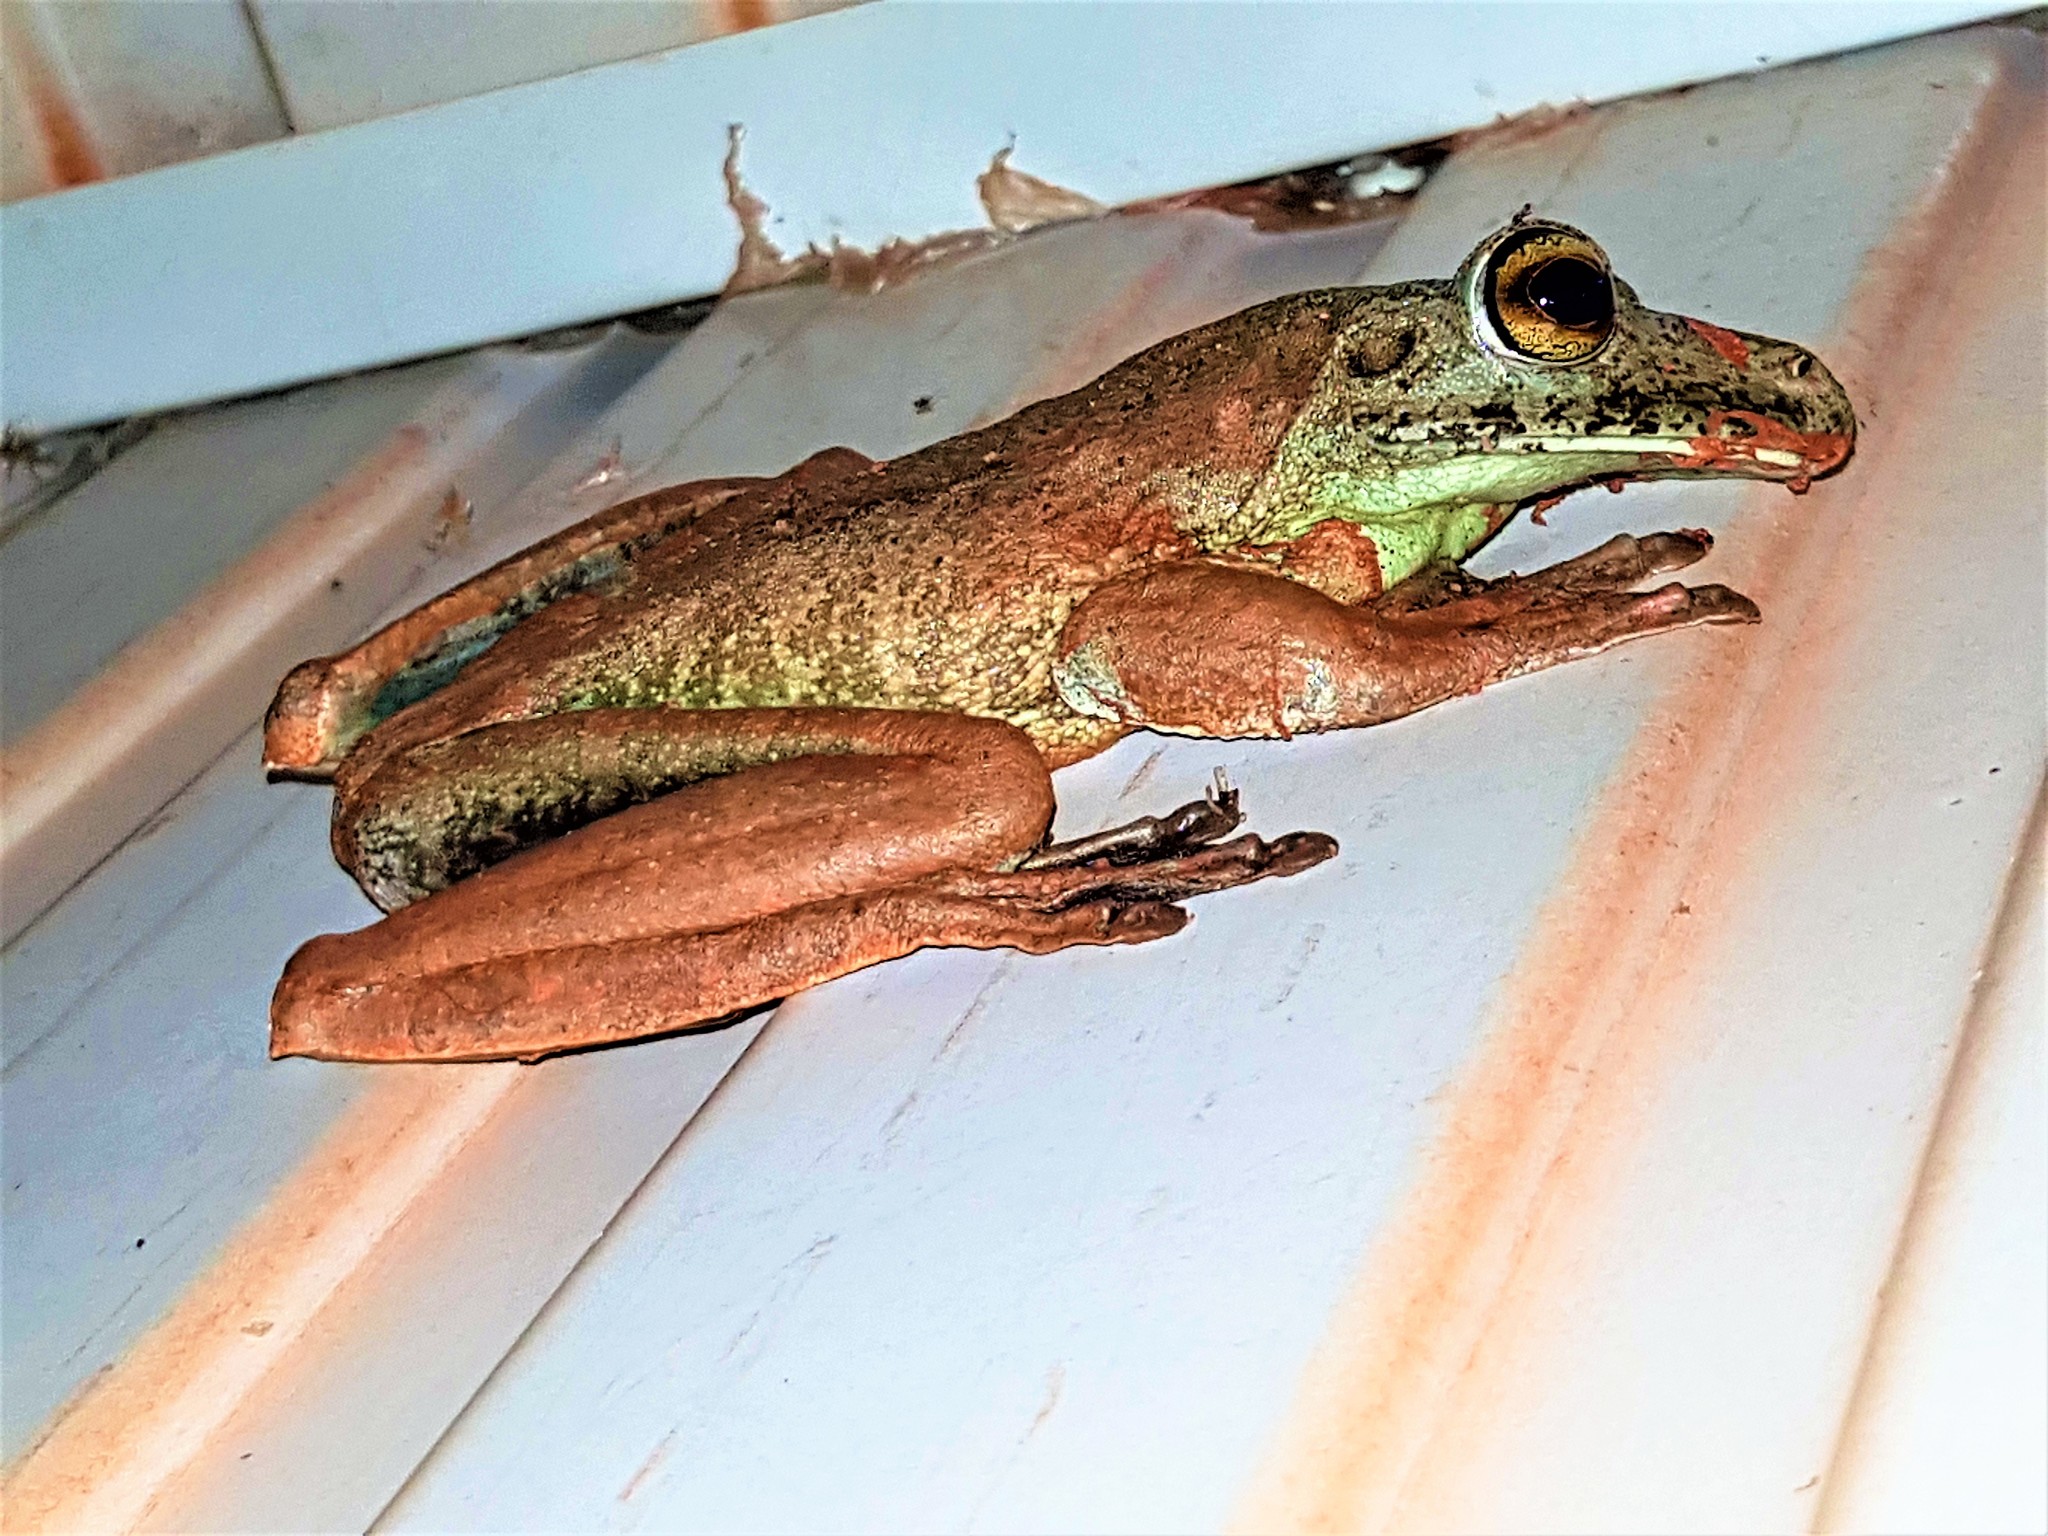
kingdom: Animalia
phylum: Chordata
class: Amphibia
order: Anura
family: Hylidae
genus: Boana
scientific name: Boana boans
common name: Giant gladiator treefrog
